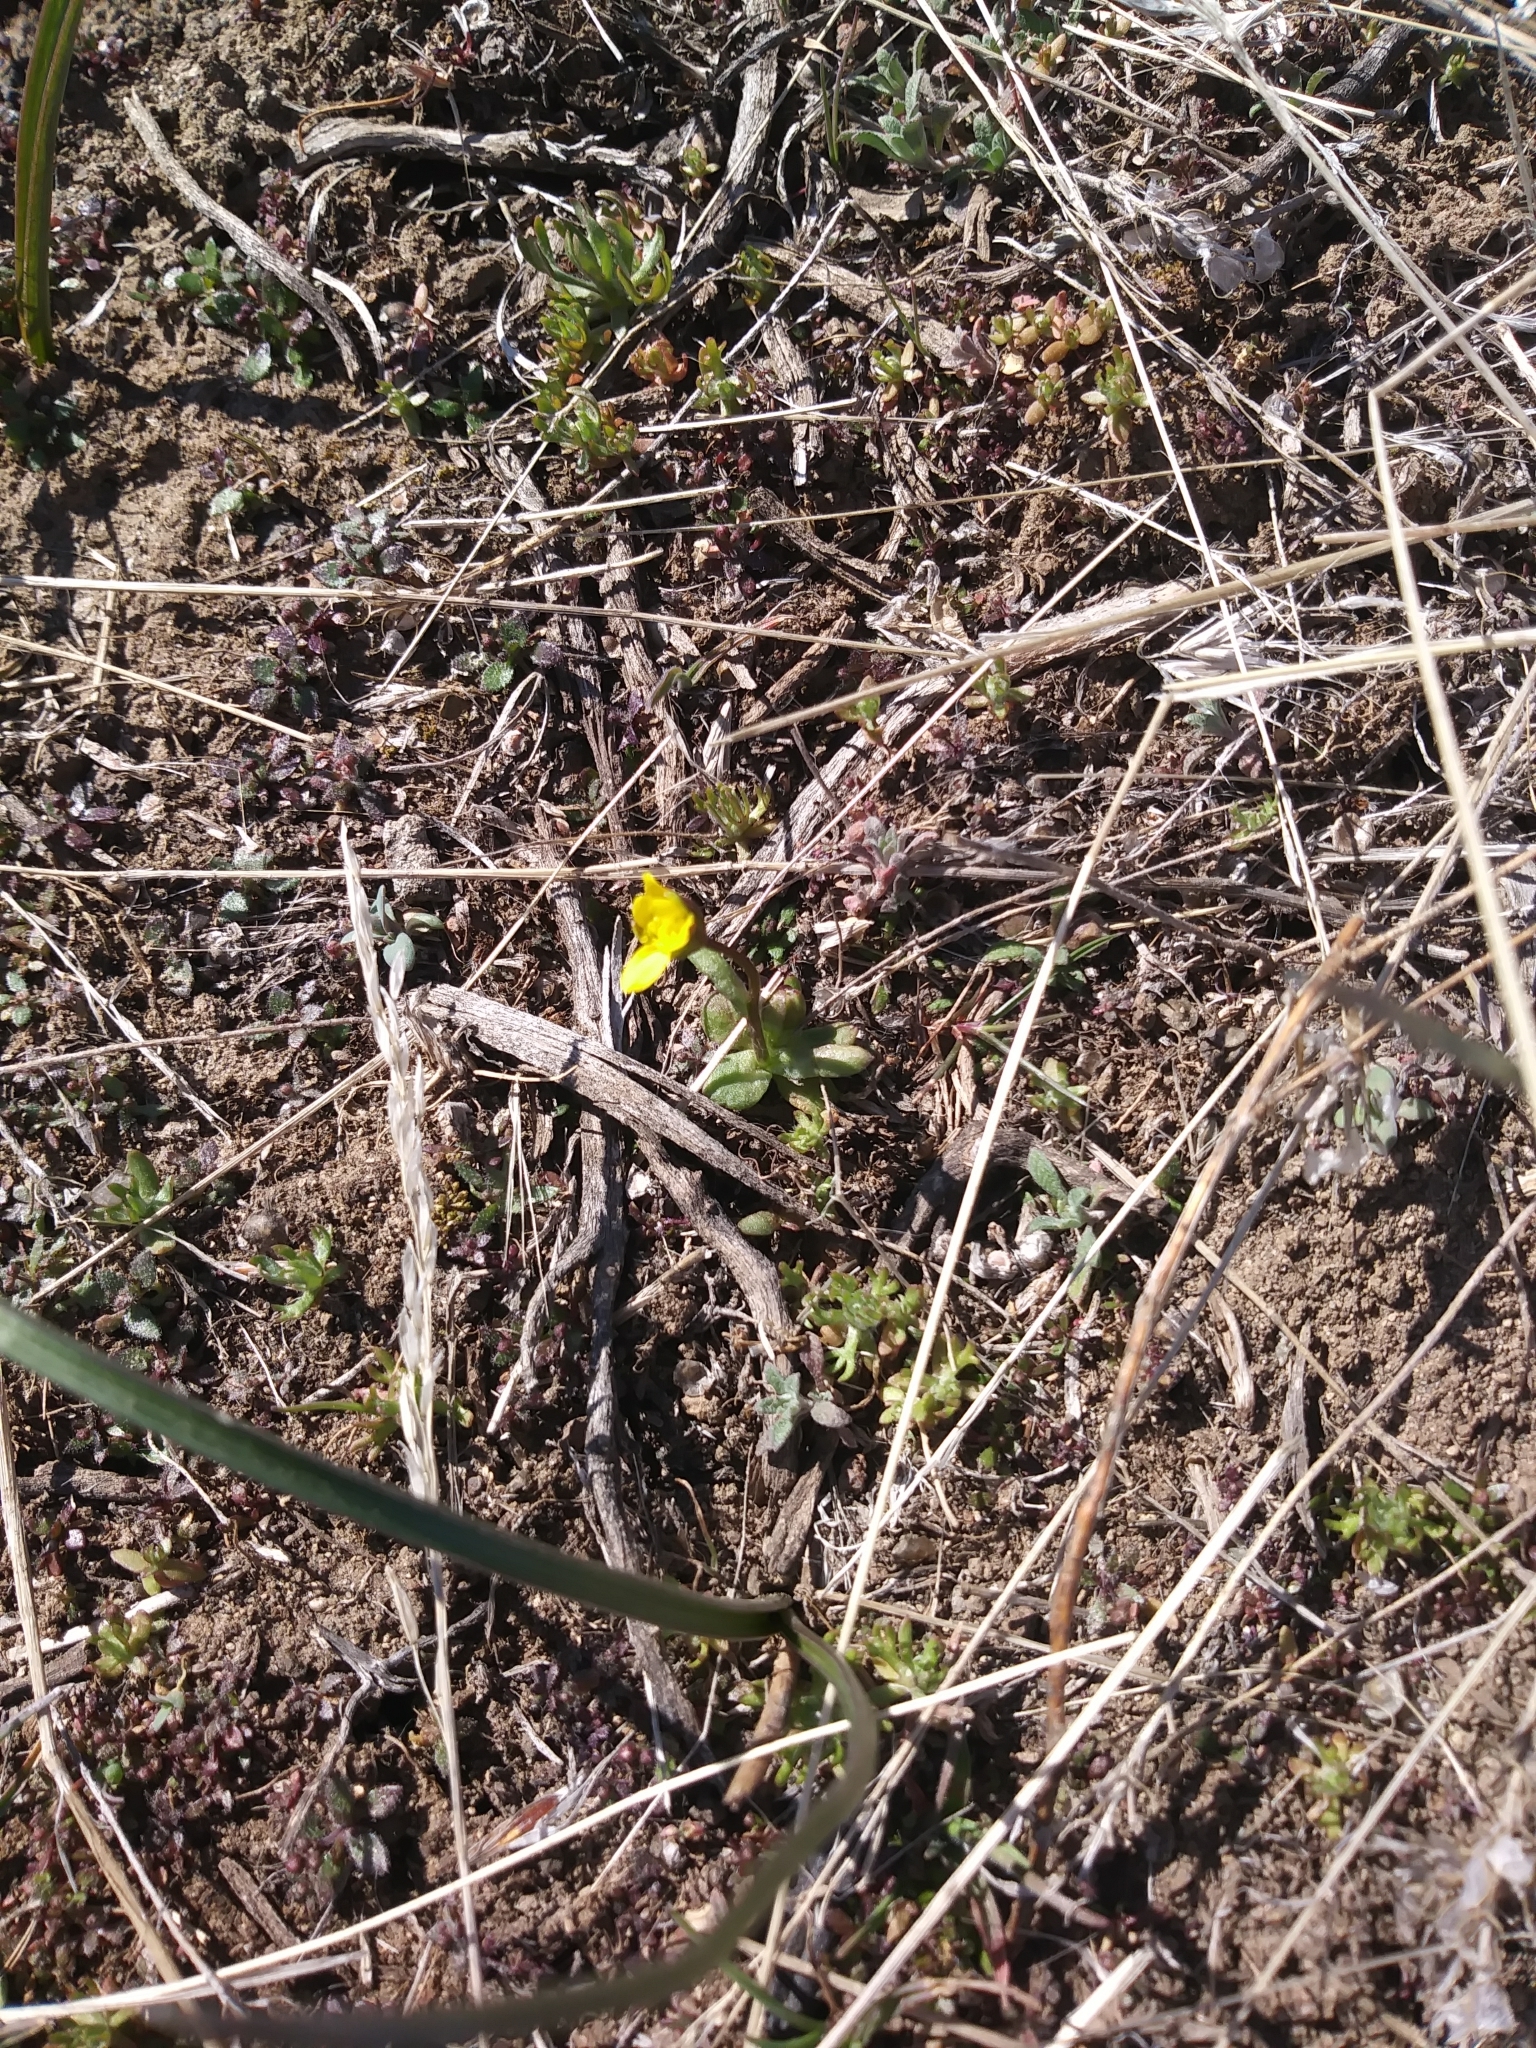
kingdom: Plantae
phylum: Tracheophyta
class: Magnoliopsida
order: Asterales
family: Asteraceae
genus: Crocidium
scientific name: Crocidium multicaule
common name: Common spring gold
